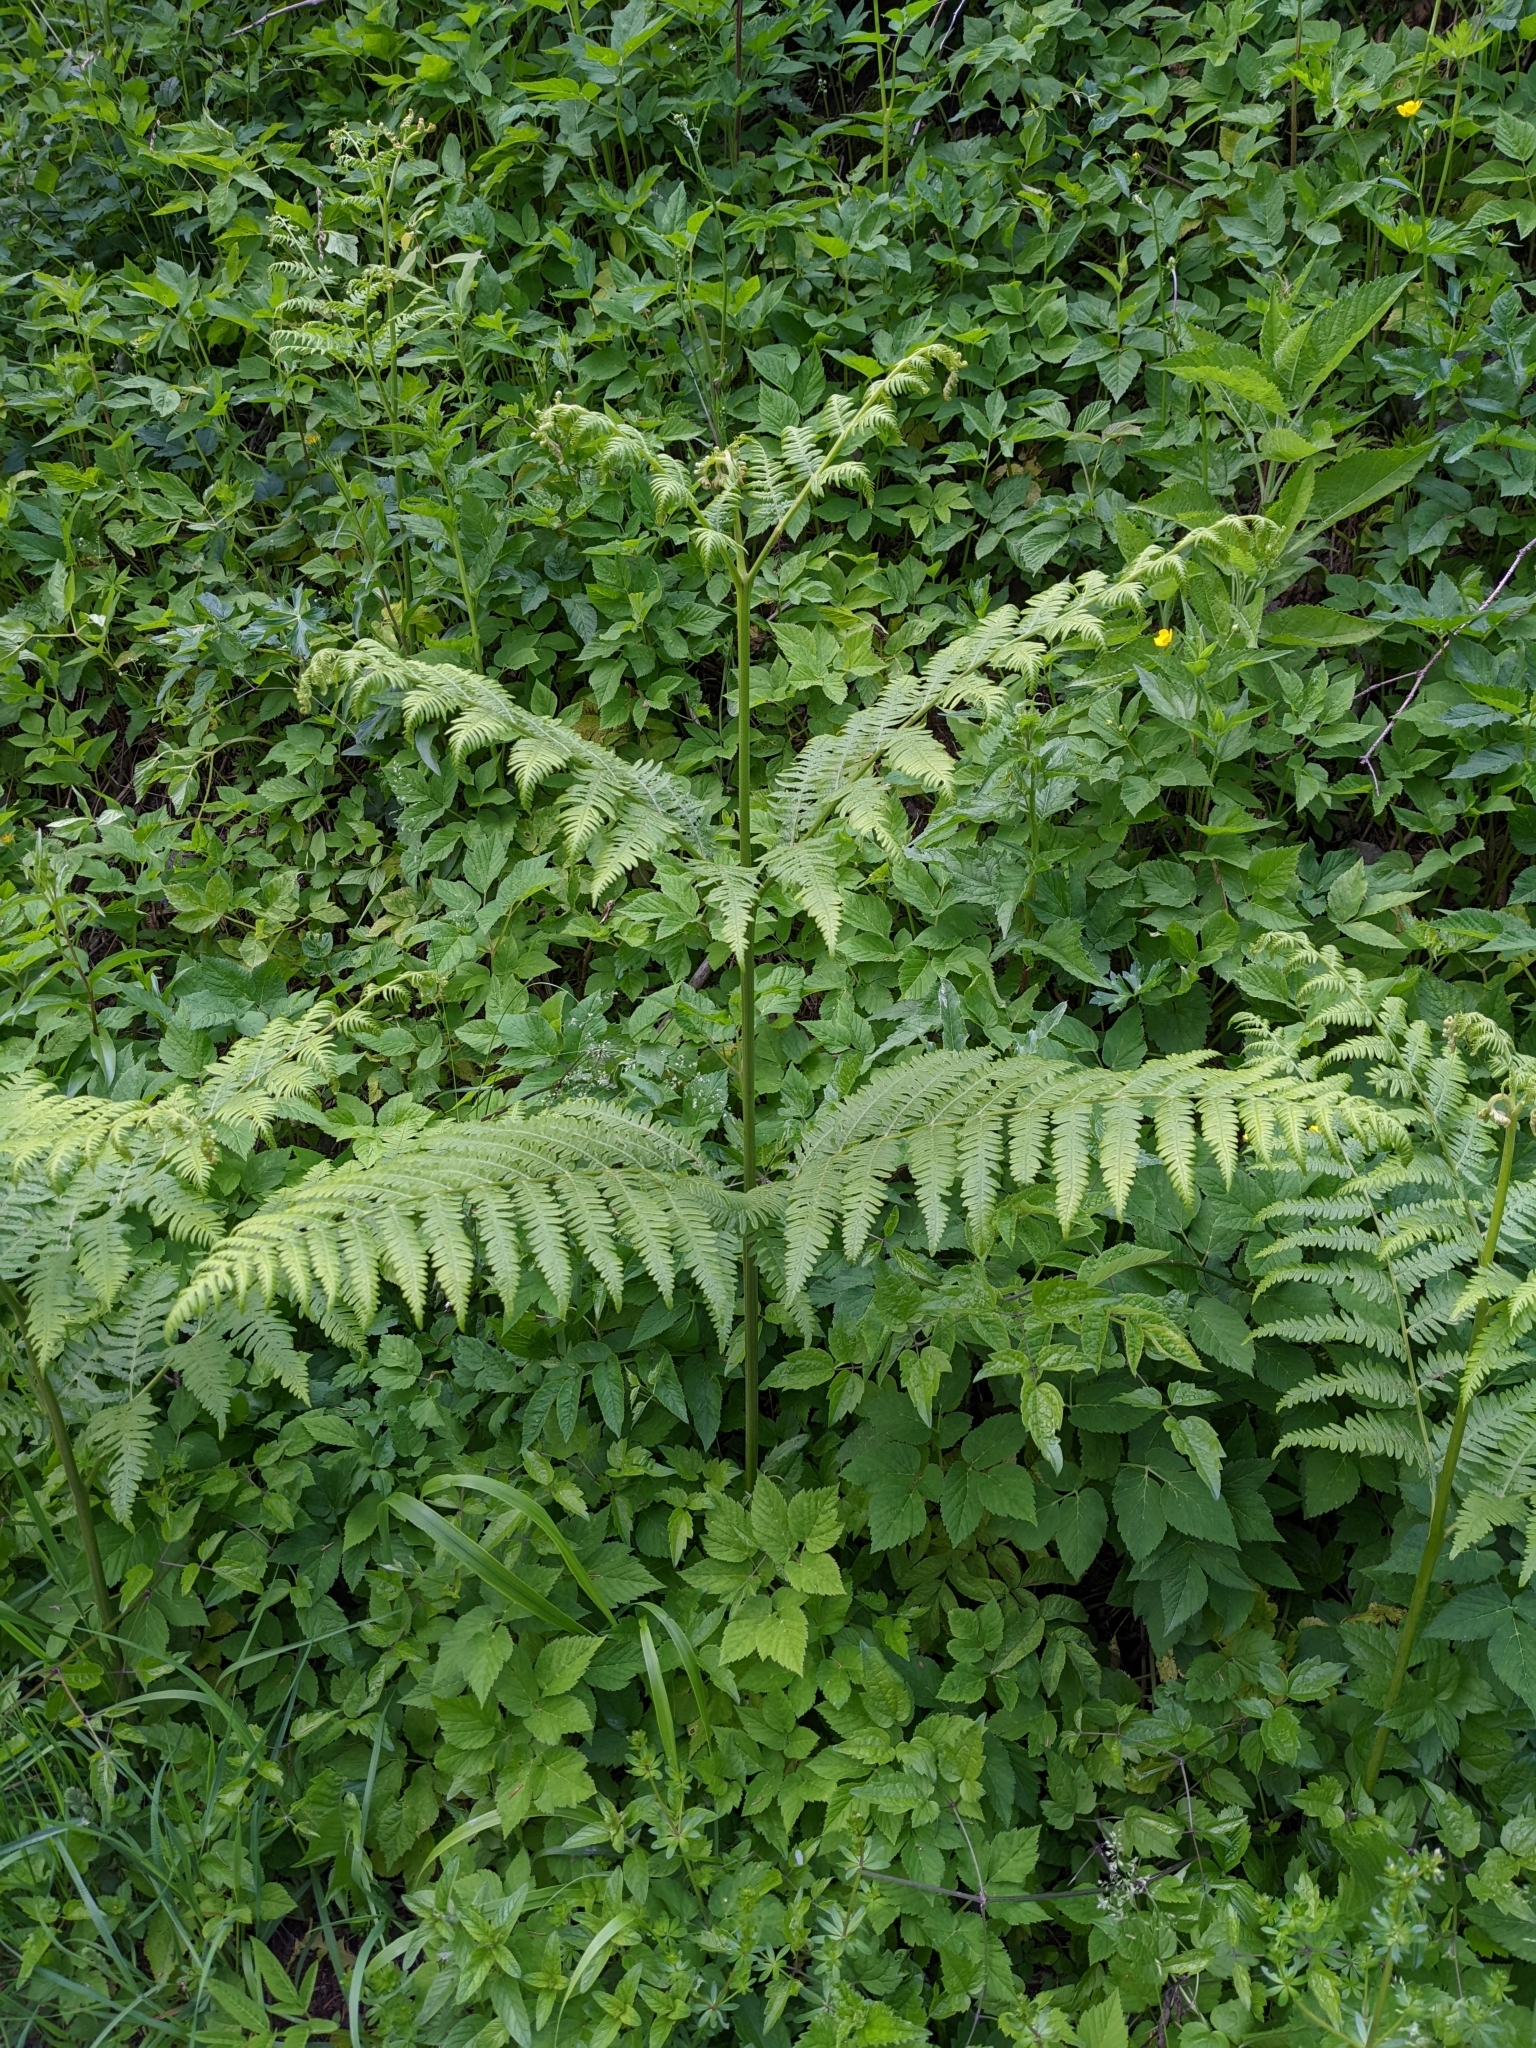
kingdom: Plantae
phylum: Tracheophyta
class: Polypodiopsida
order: Polypodiales
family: Dennstaedtiaceae
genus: Pteridium
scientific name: Pteridium aquilinum
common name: Bracken
